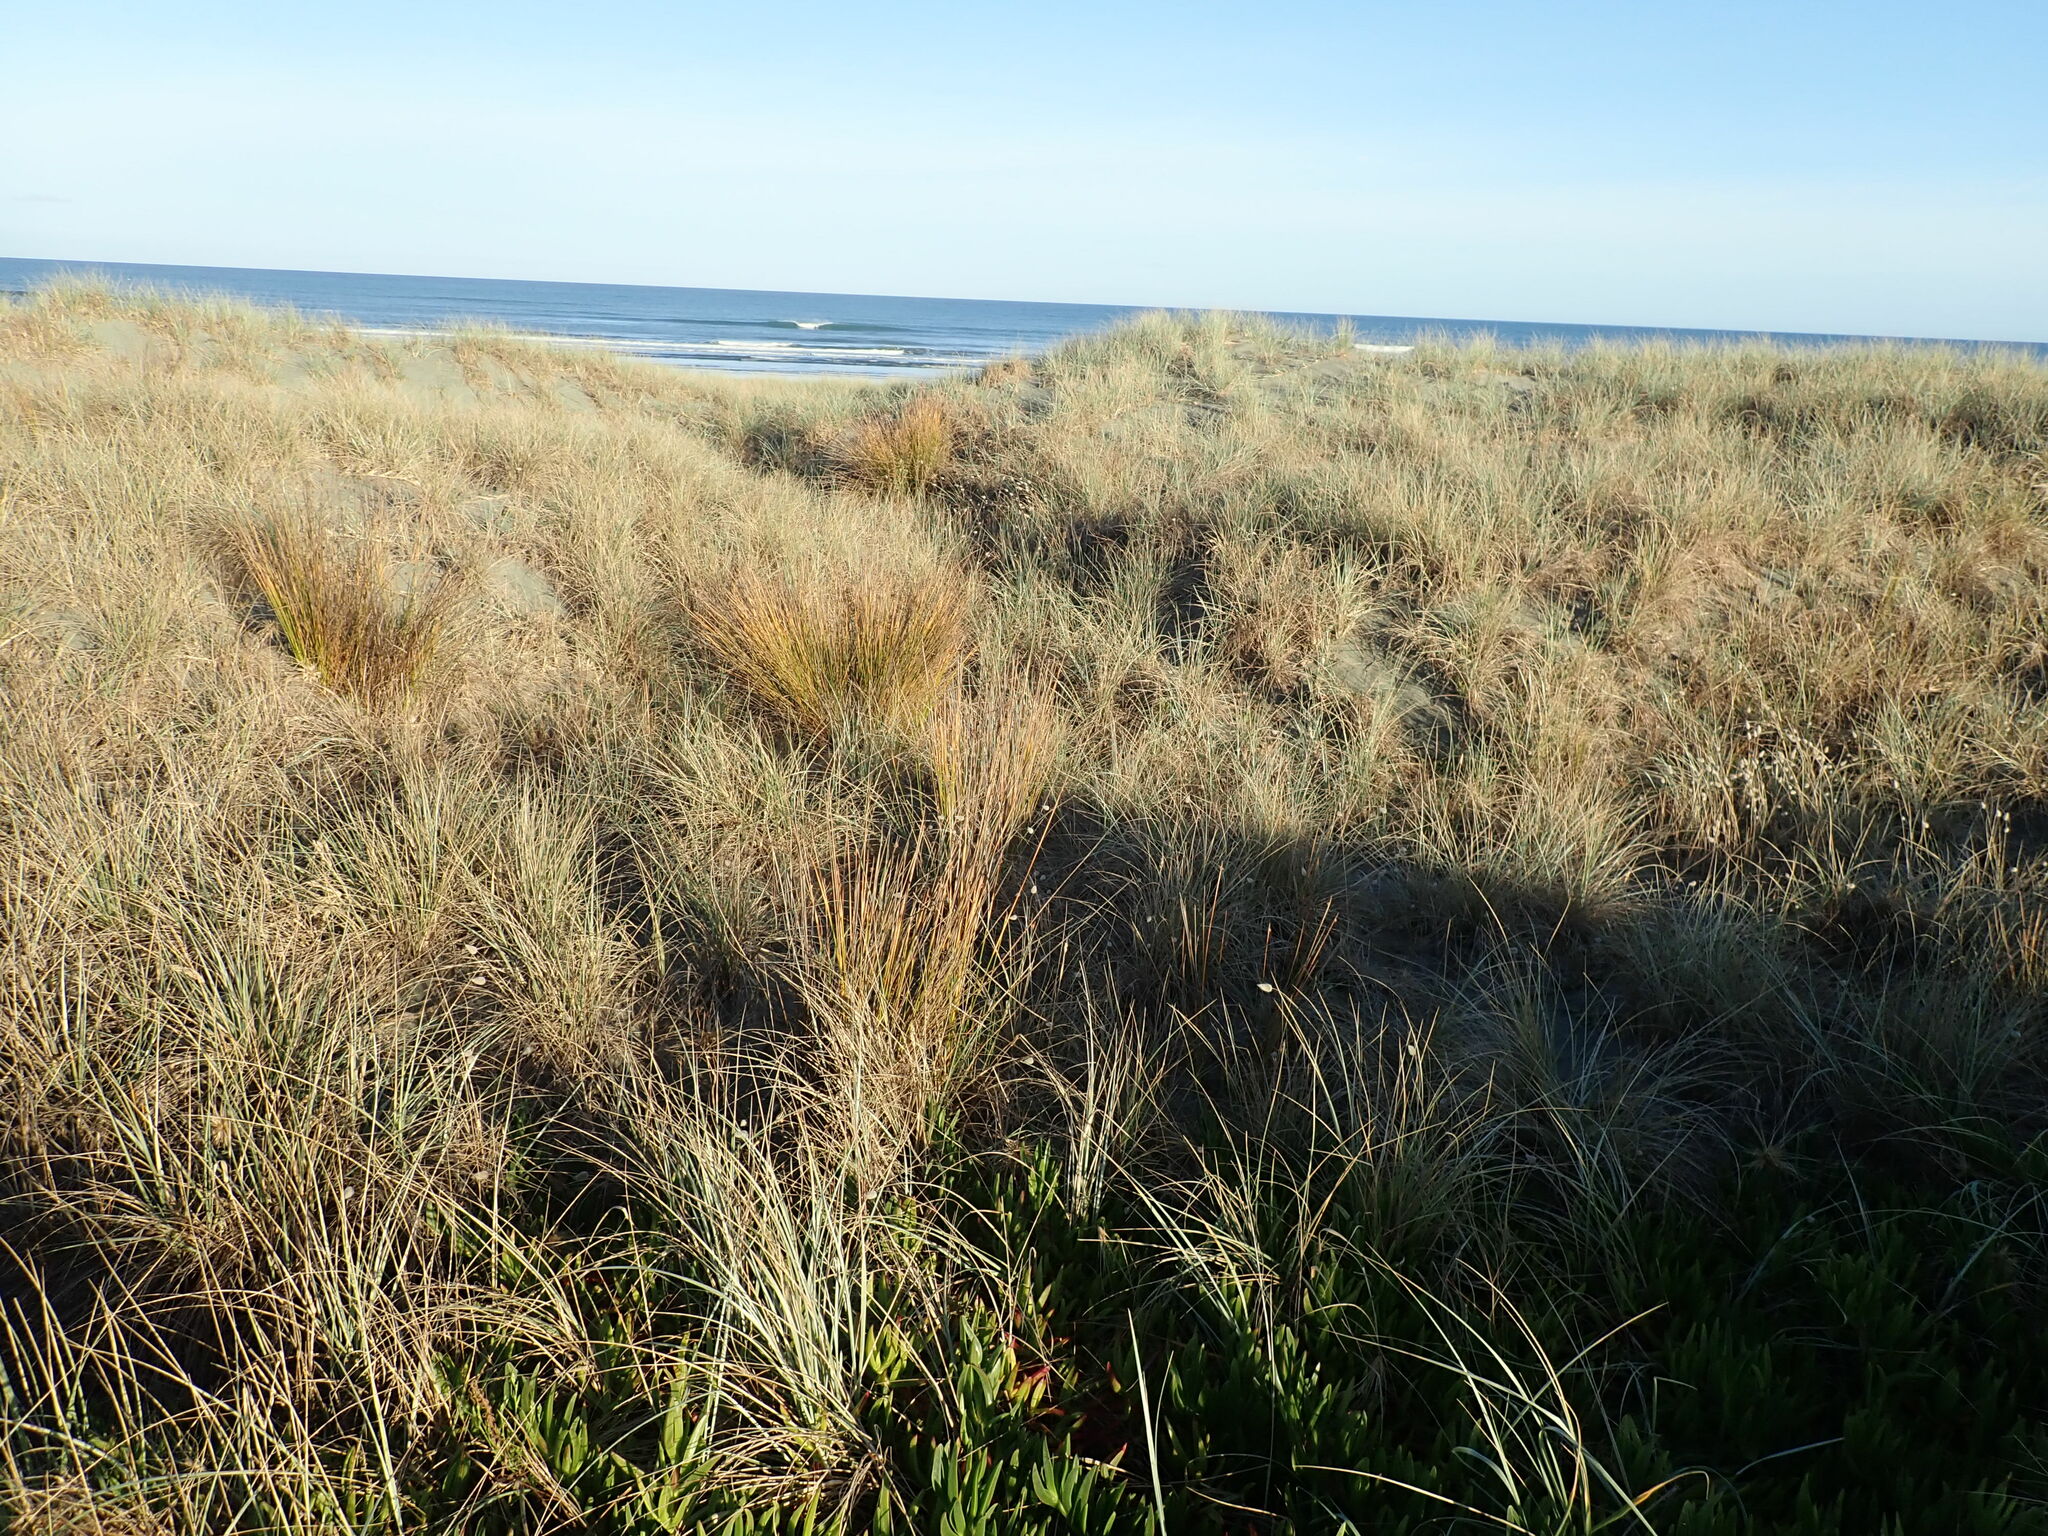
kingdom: Plantae
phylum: Tracheophyta
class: Liliopsida
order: Poales
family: Cyperaceae
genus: Ficinia
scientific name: Ficinia nodosa
